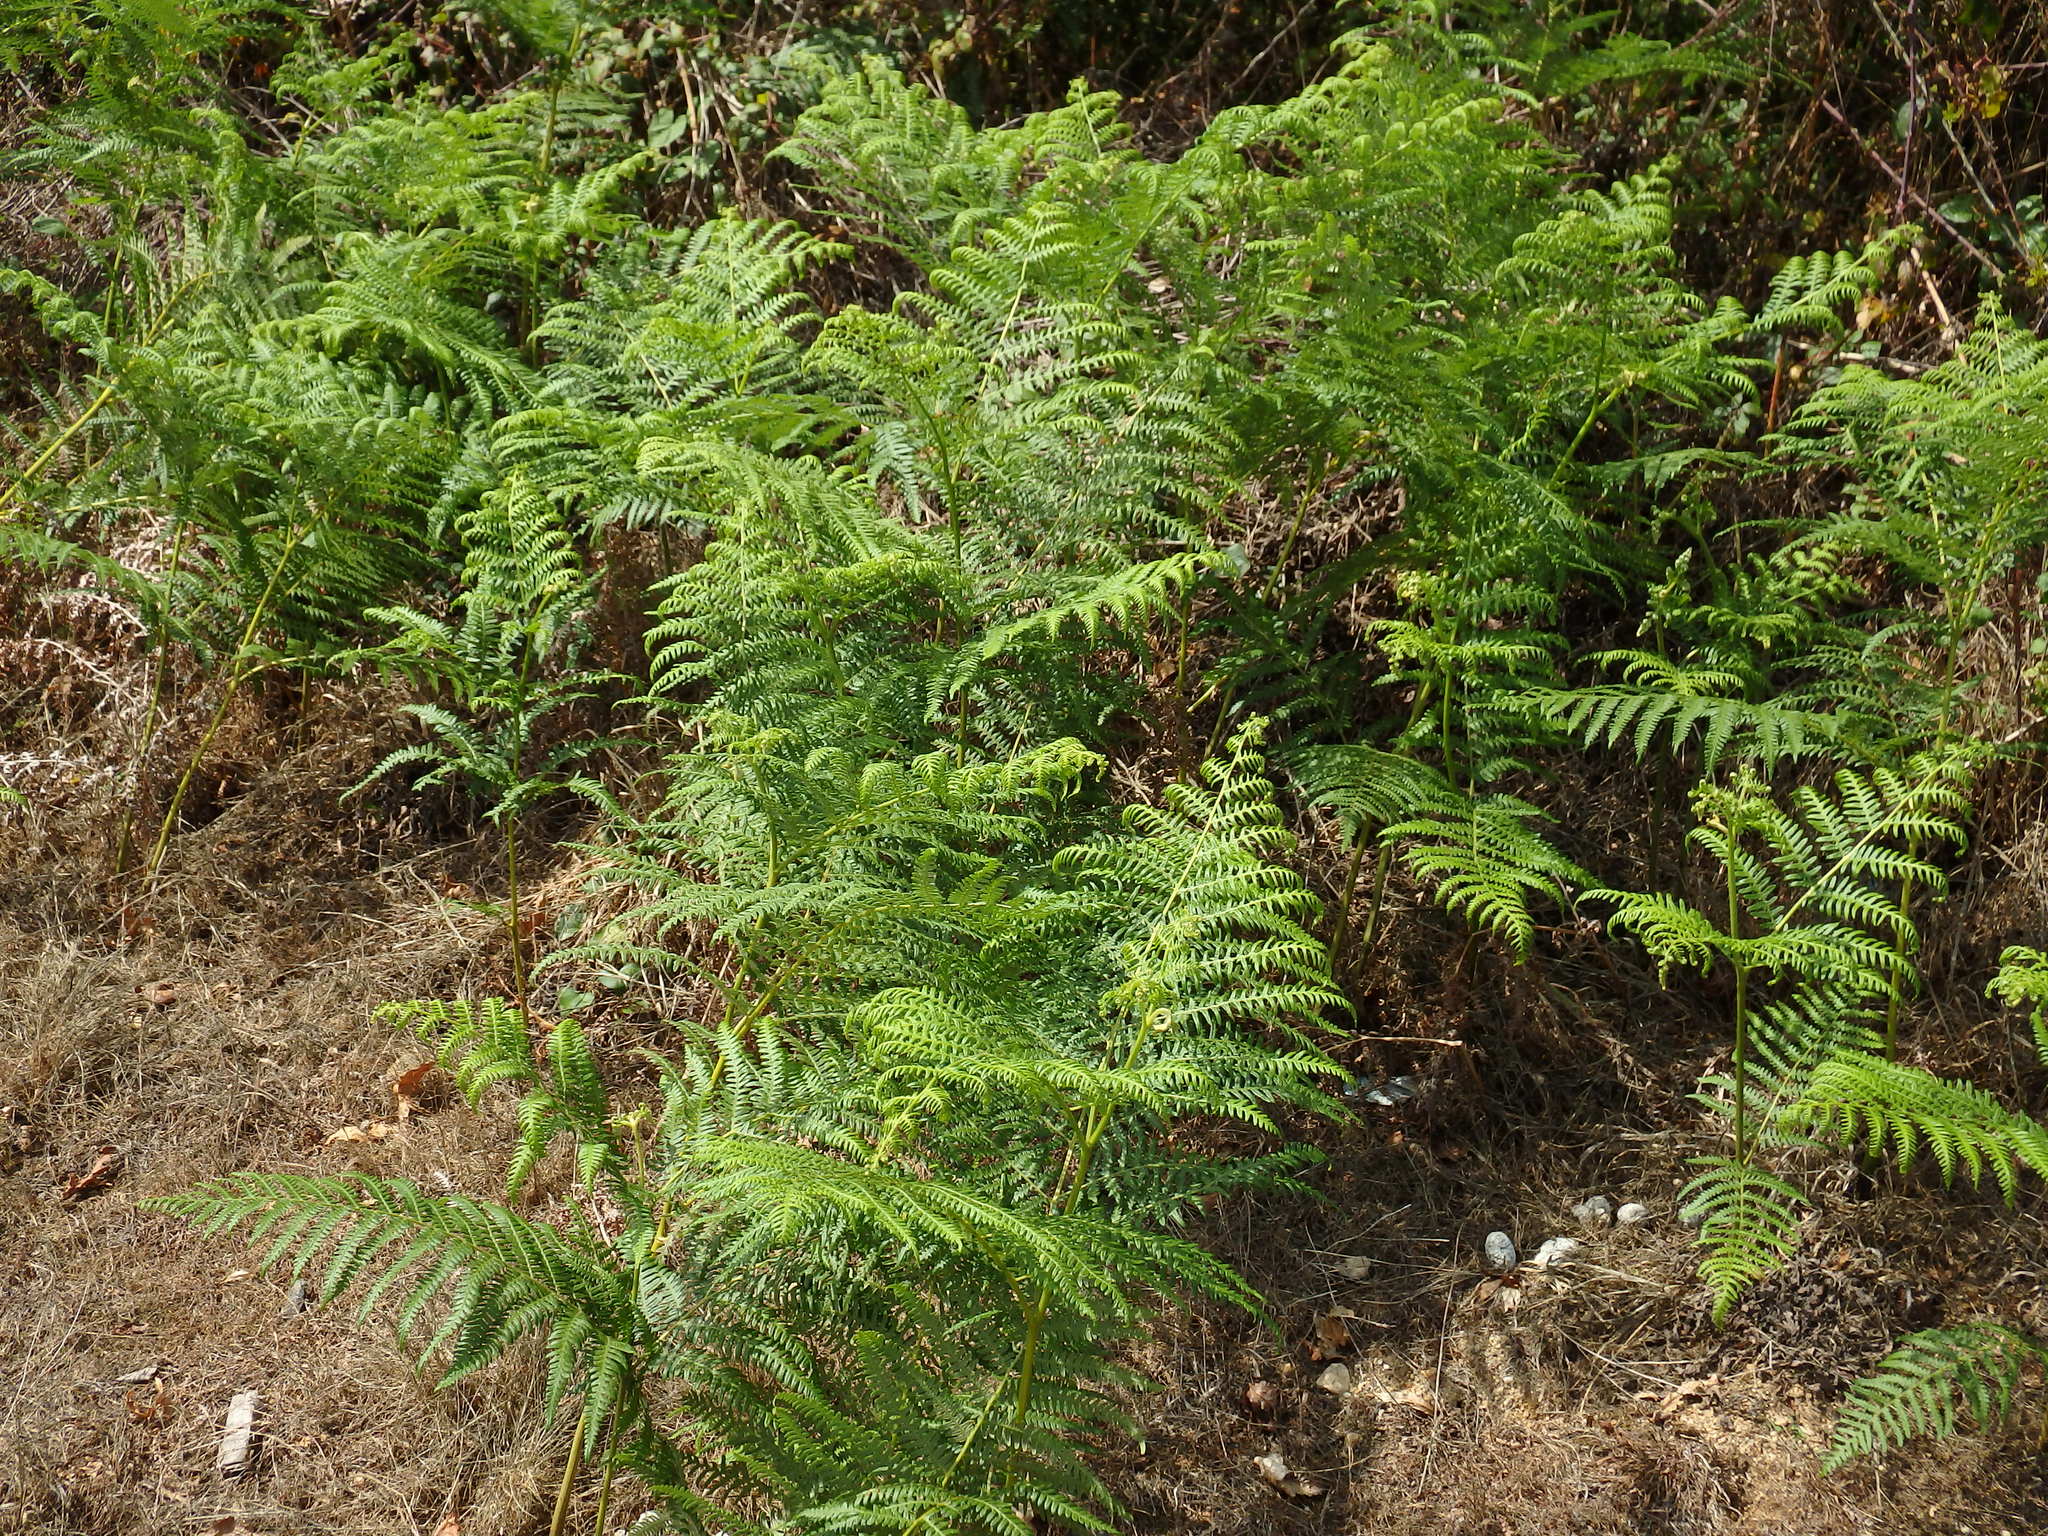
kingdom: Plantae
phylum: Tracheophyta
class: Polypodiopsida
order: Polypodiales
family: Dennstaedtiaceae
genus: Pteridium
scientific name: Pteridium aquilinum
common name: Bracken
